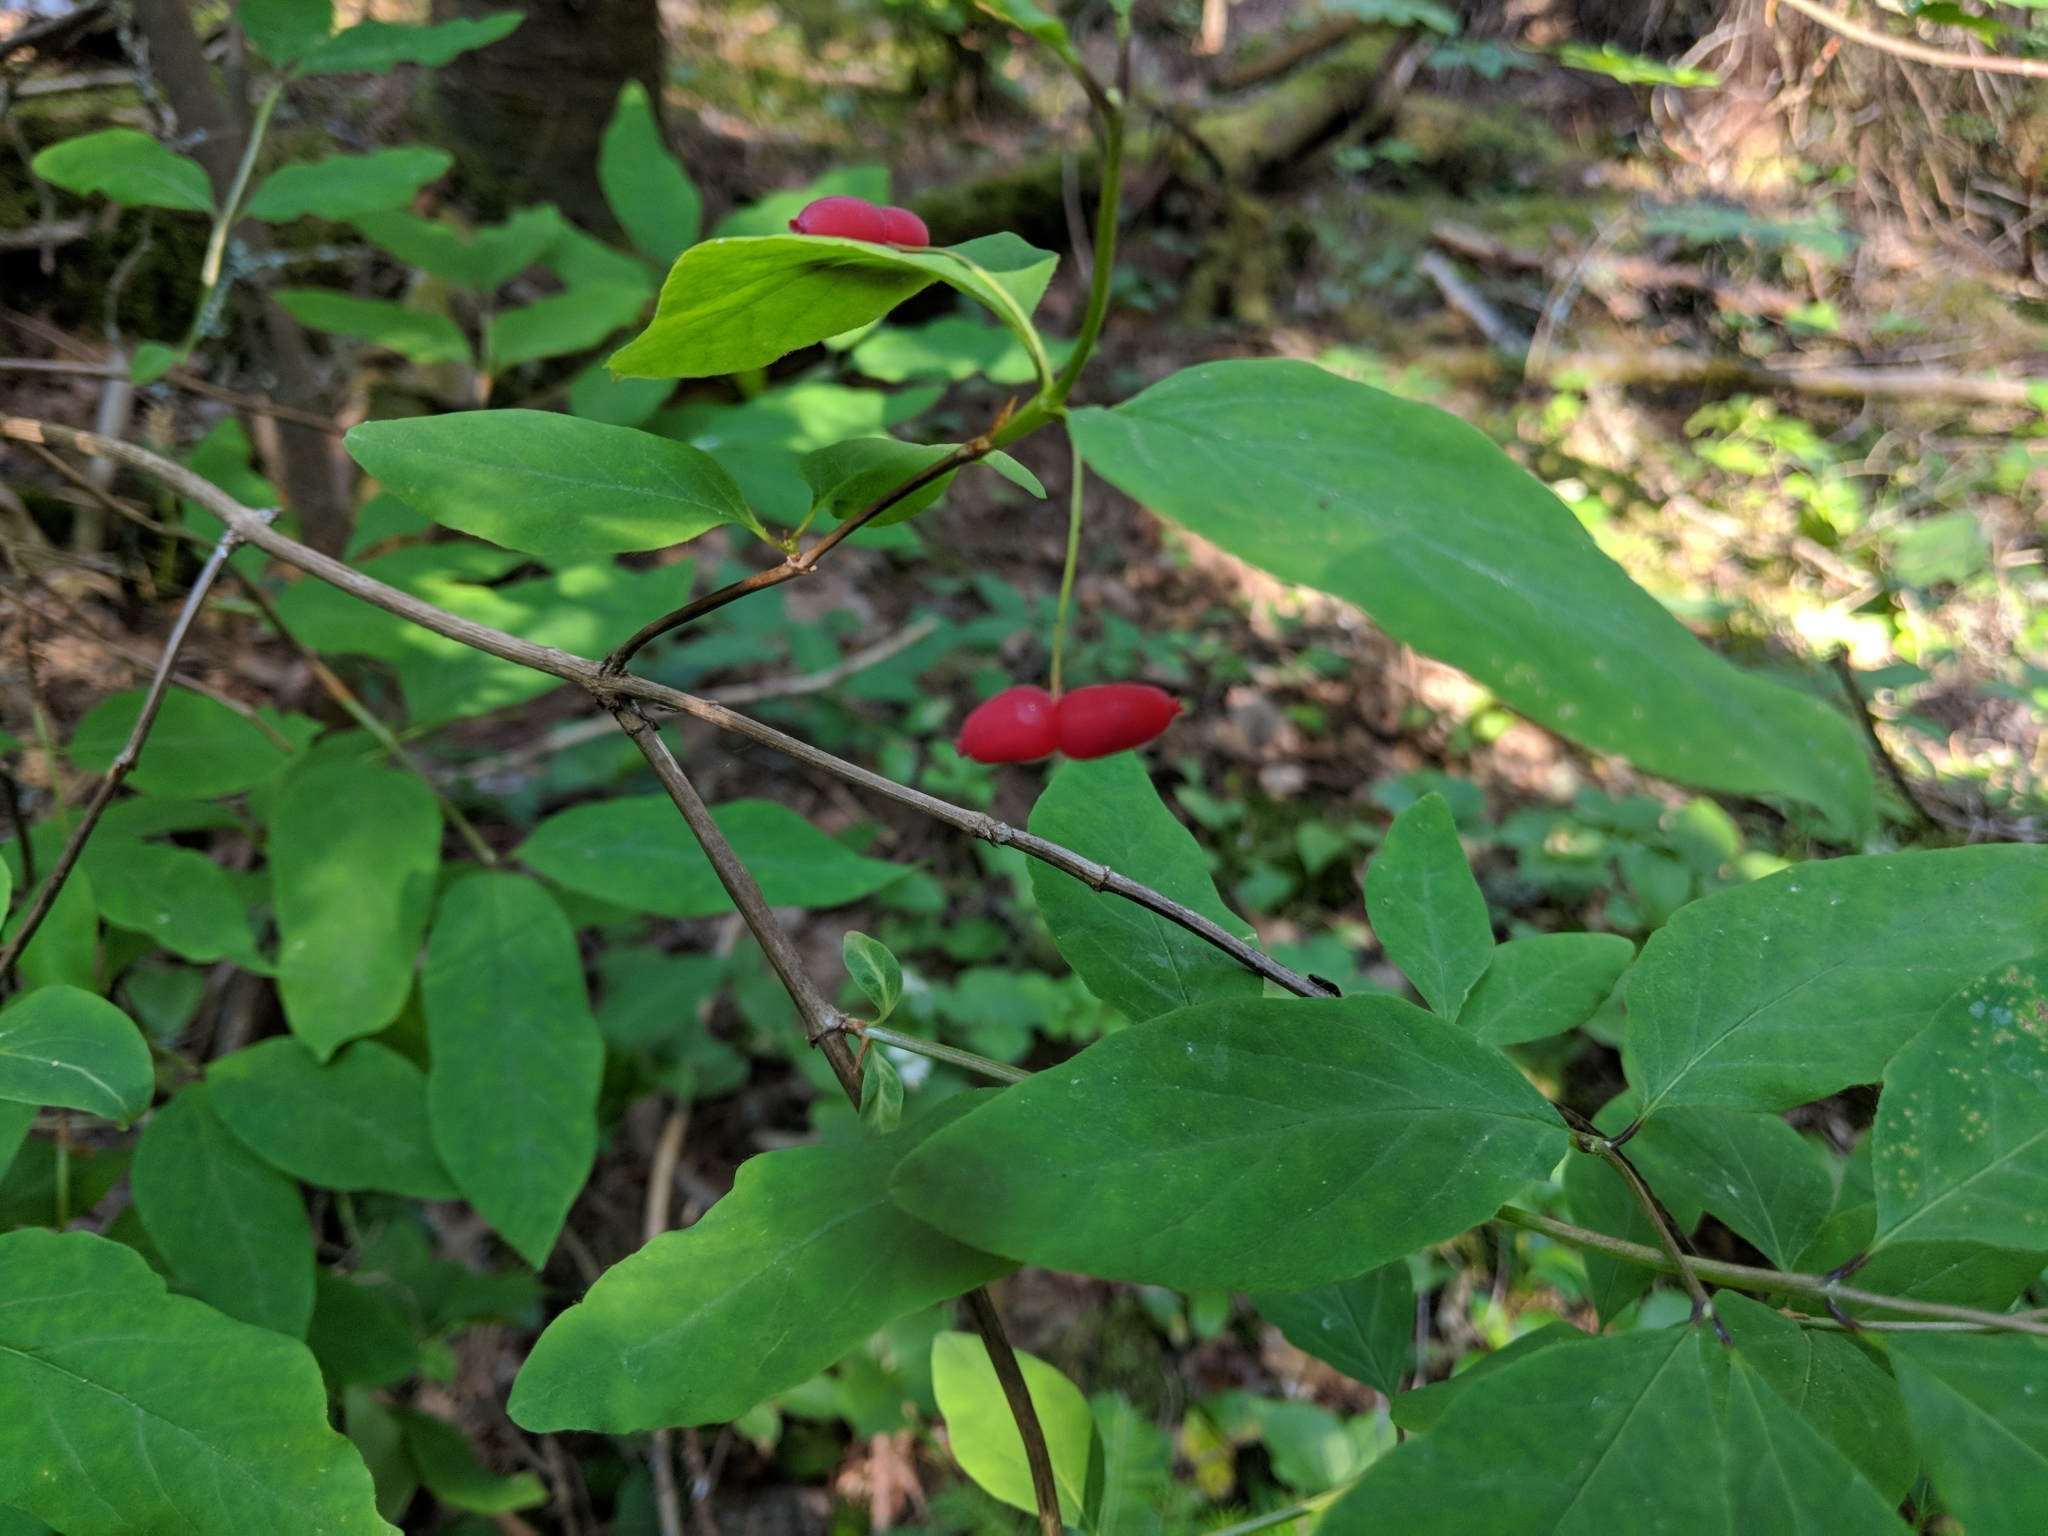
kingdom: Plantae
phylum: Tracheophyta
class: Magnoliopsida
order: Dipsacales
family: Caprifoliaceae
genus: Lonicera
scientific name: Lonicera canadensis
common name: American fly-honeysuckle
